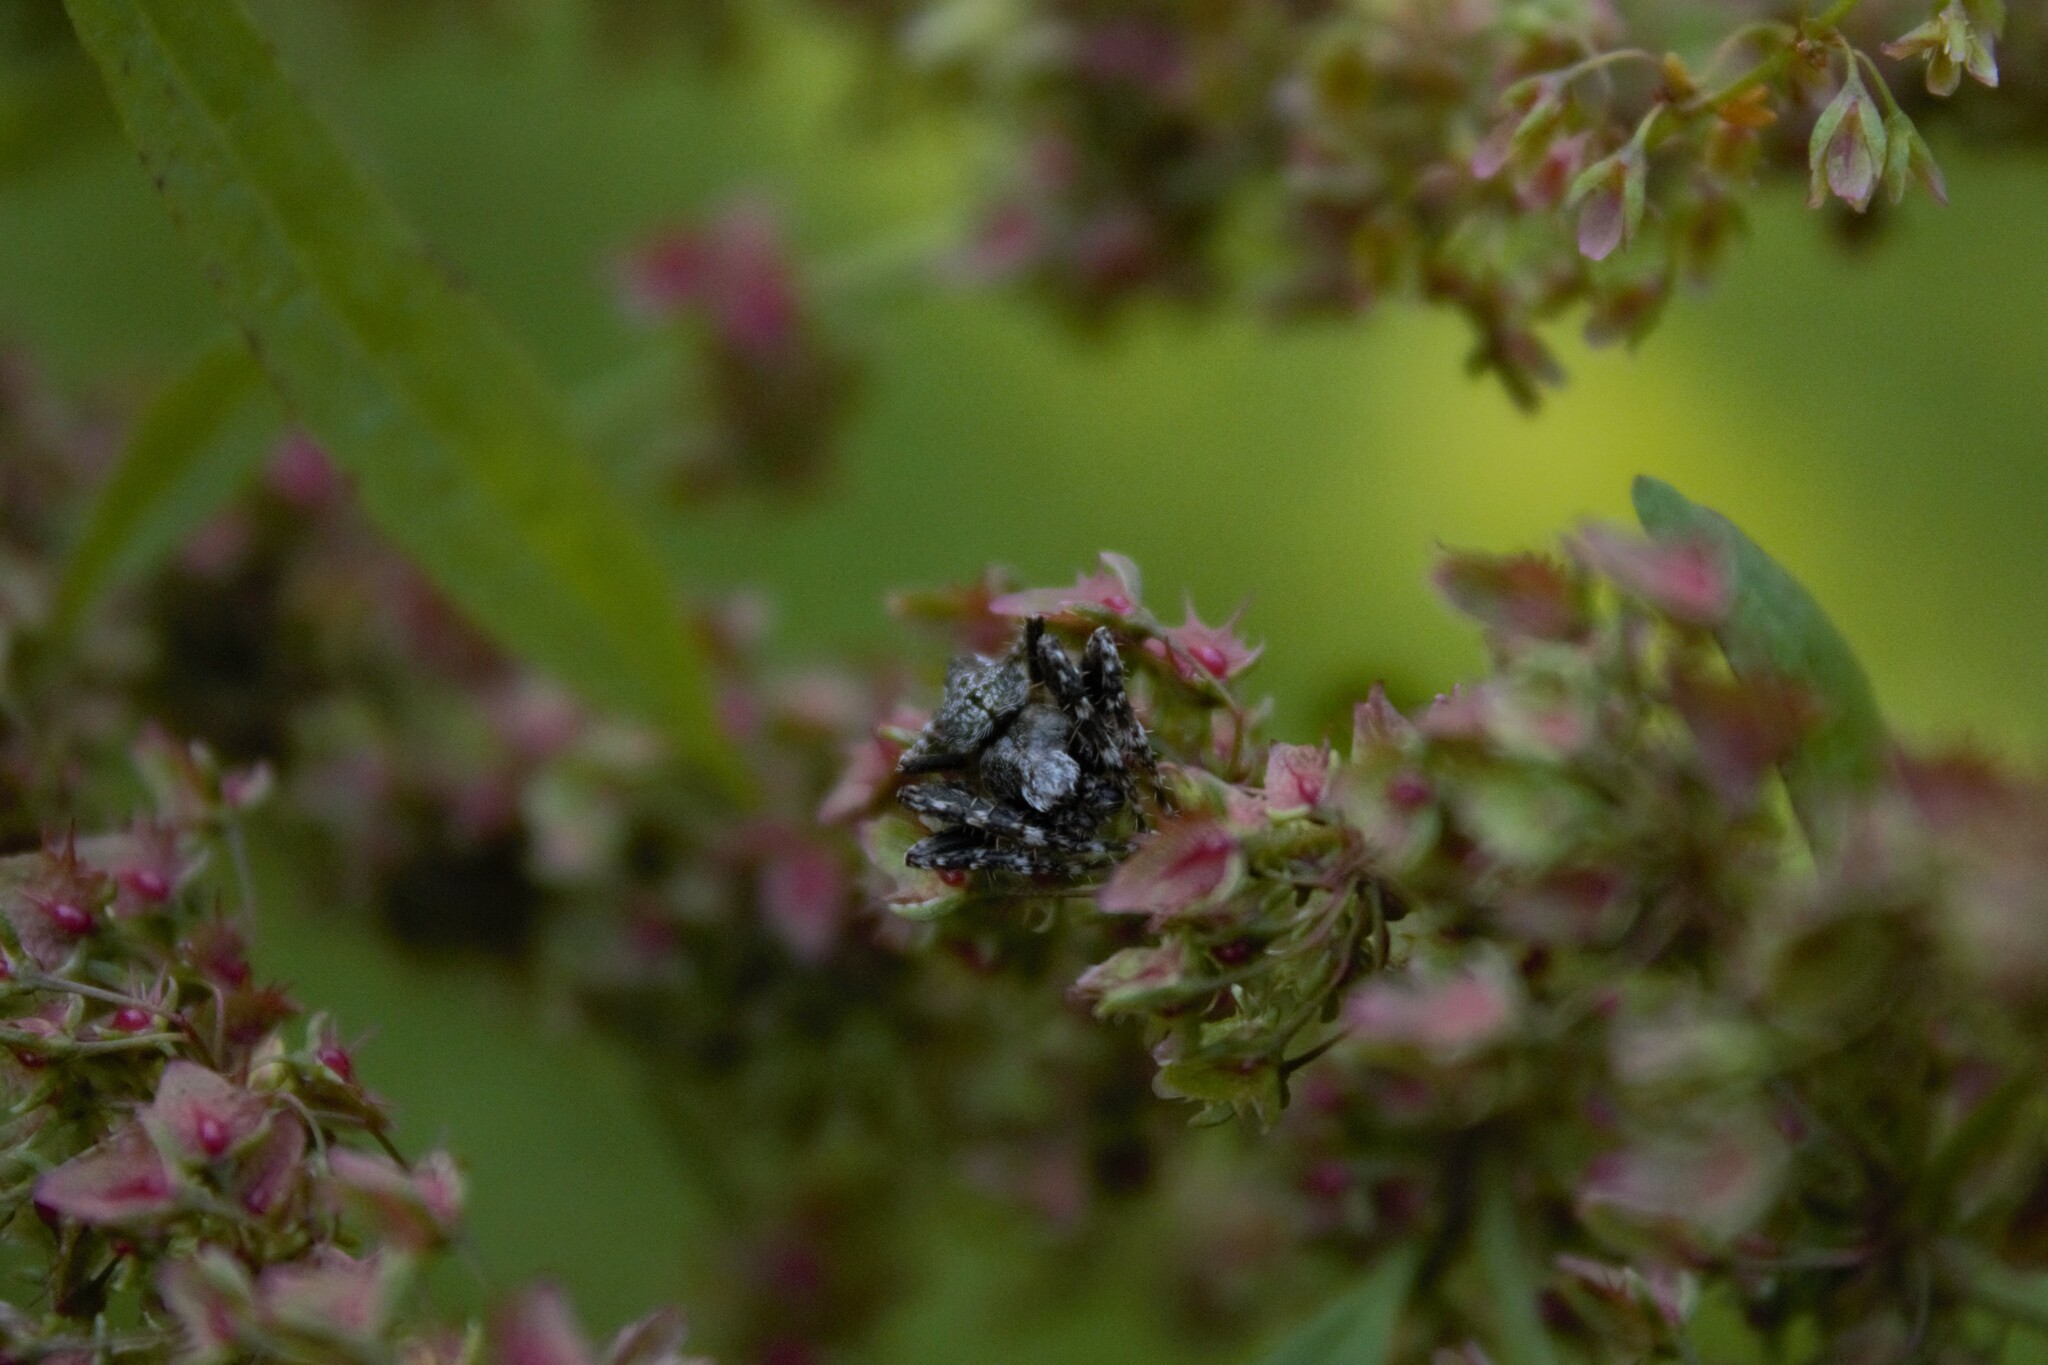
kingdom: Animalia
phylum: Arthropoda
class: Arachnida
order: Araneae
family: Araneidae
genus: Eriophora
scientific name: Eriophora pustulosa
